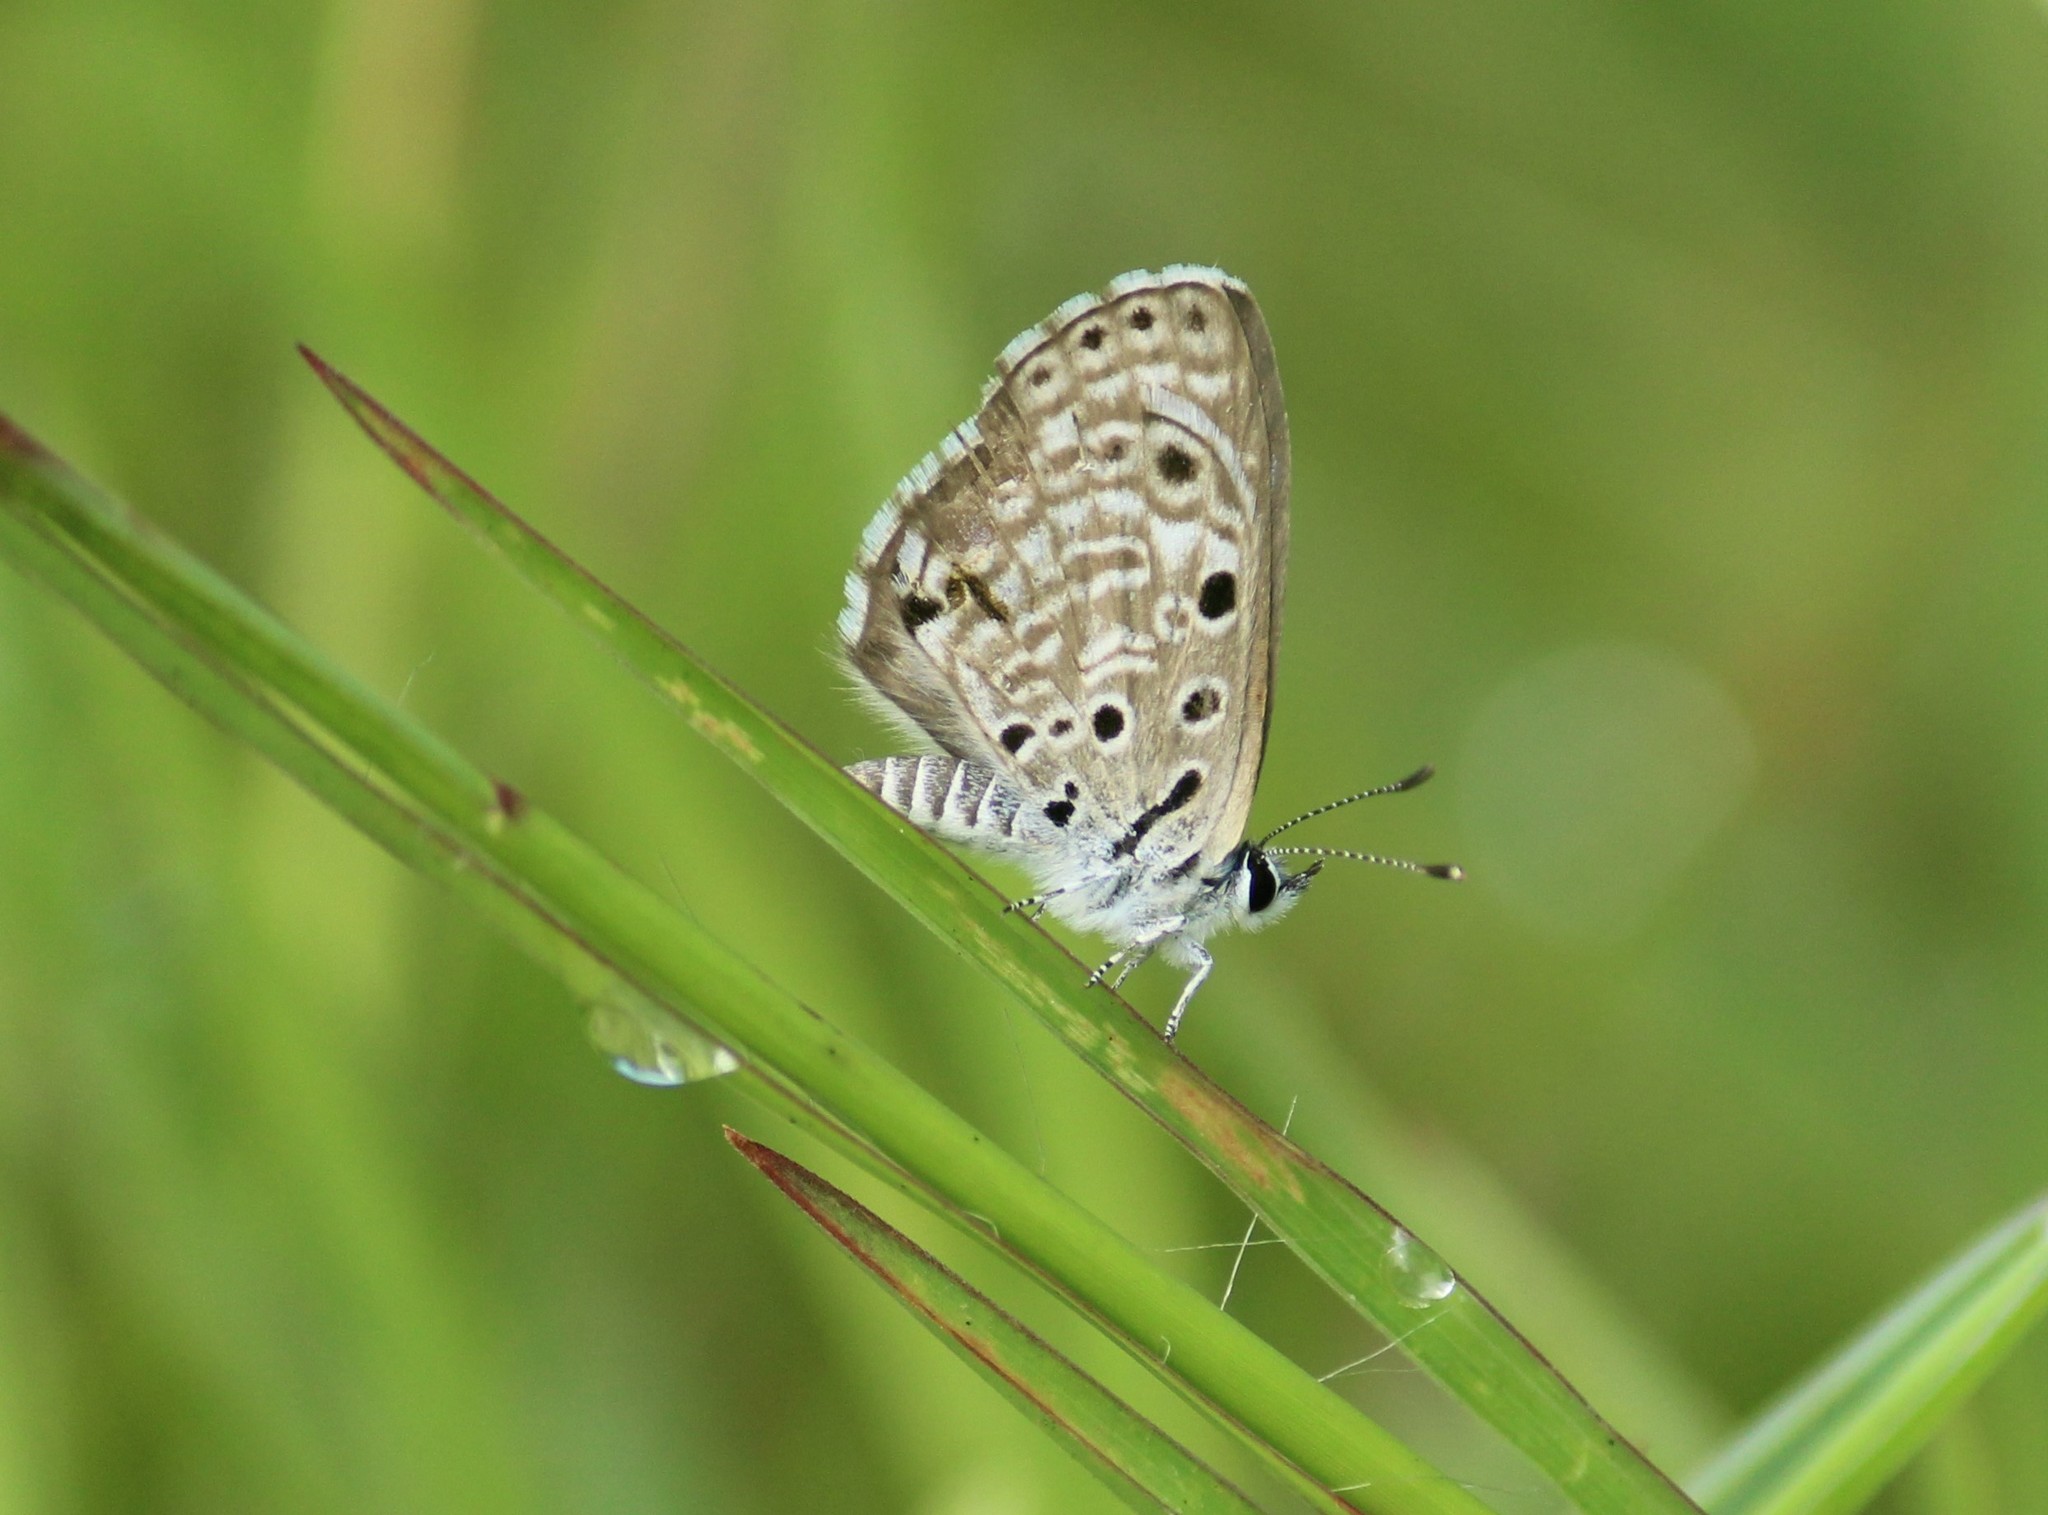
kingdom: Animalia
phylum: Arthropoda
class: Insecta
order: Lepidoptera
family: Lycaenidae
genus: Azanus
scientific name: Azanus jesous
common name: African babul blue
